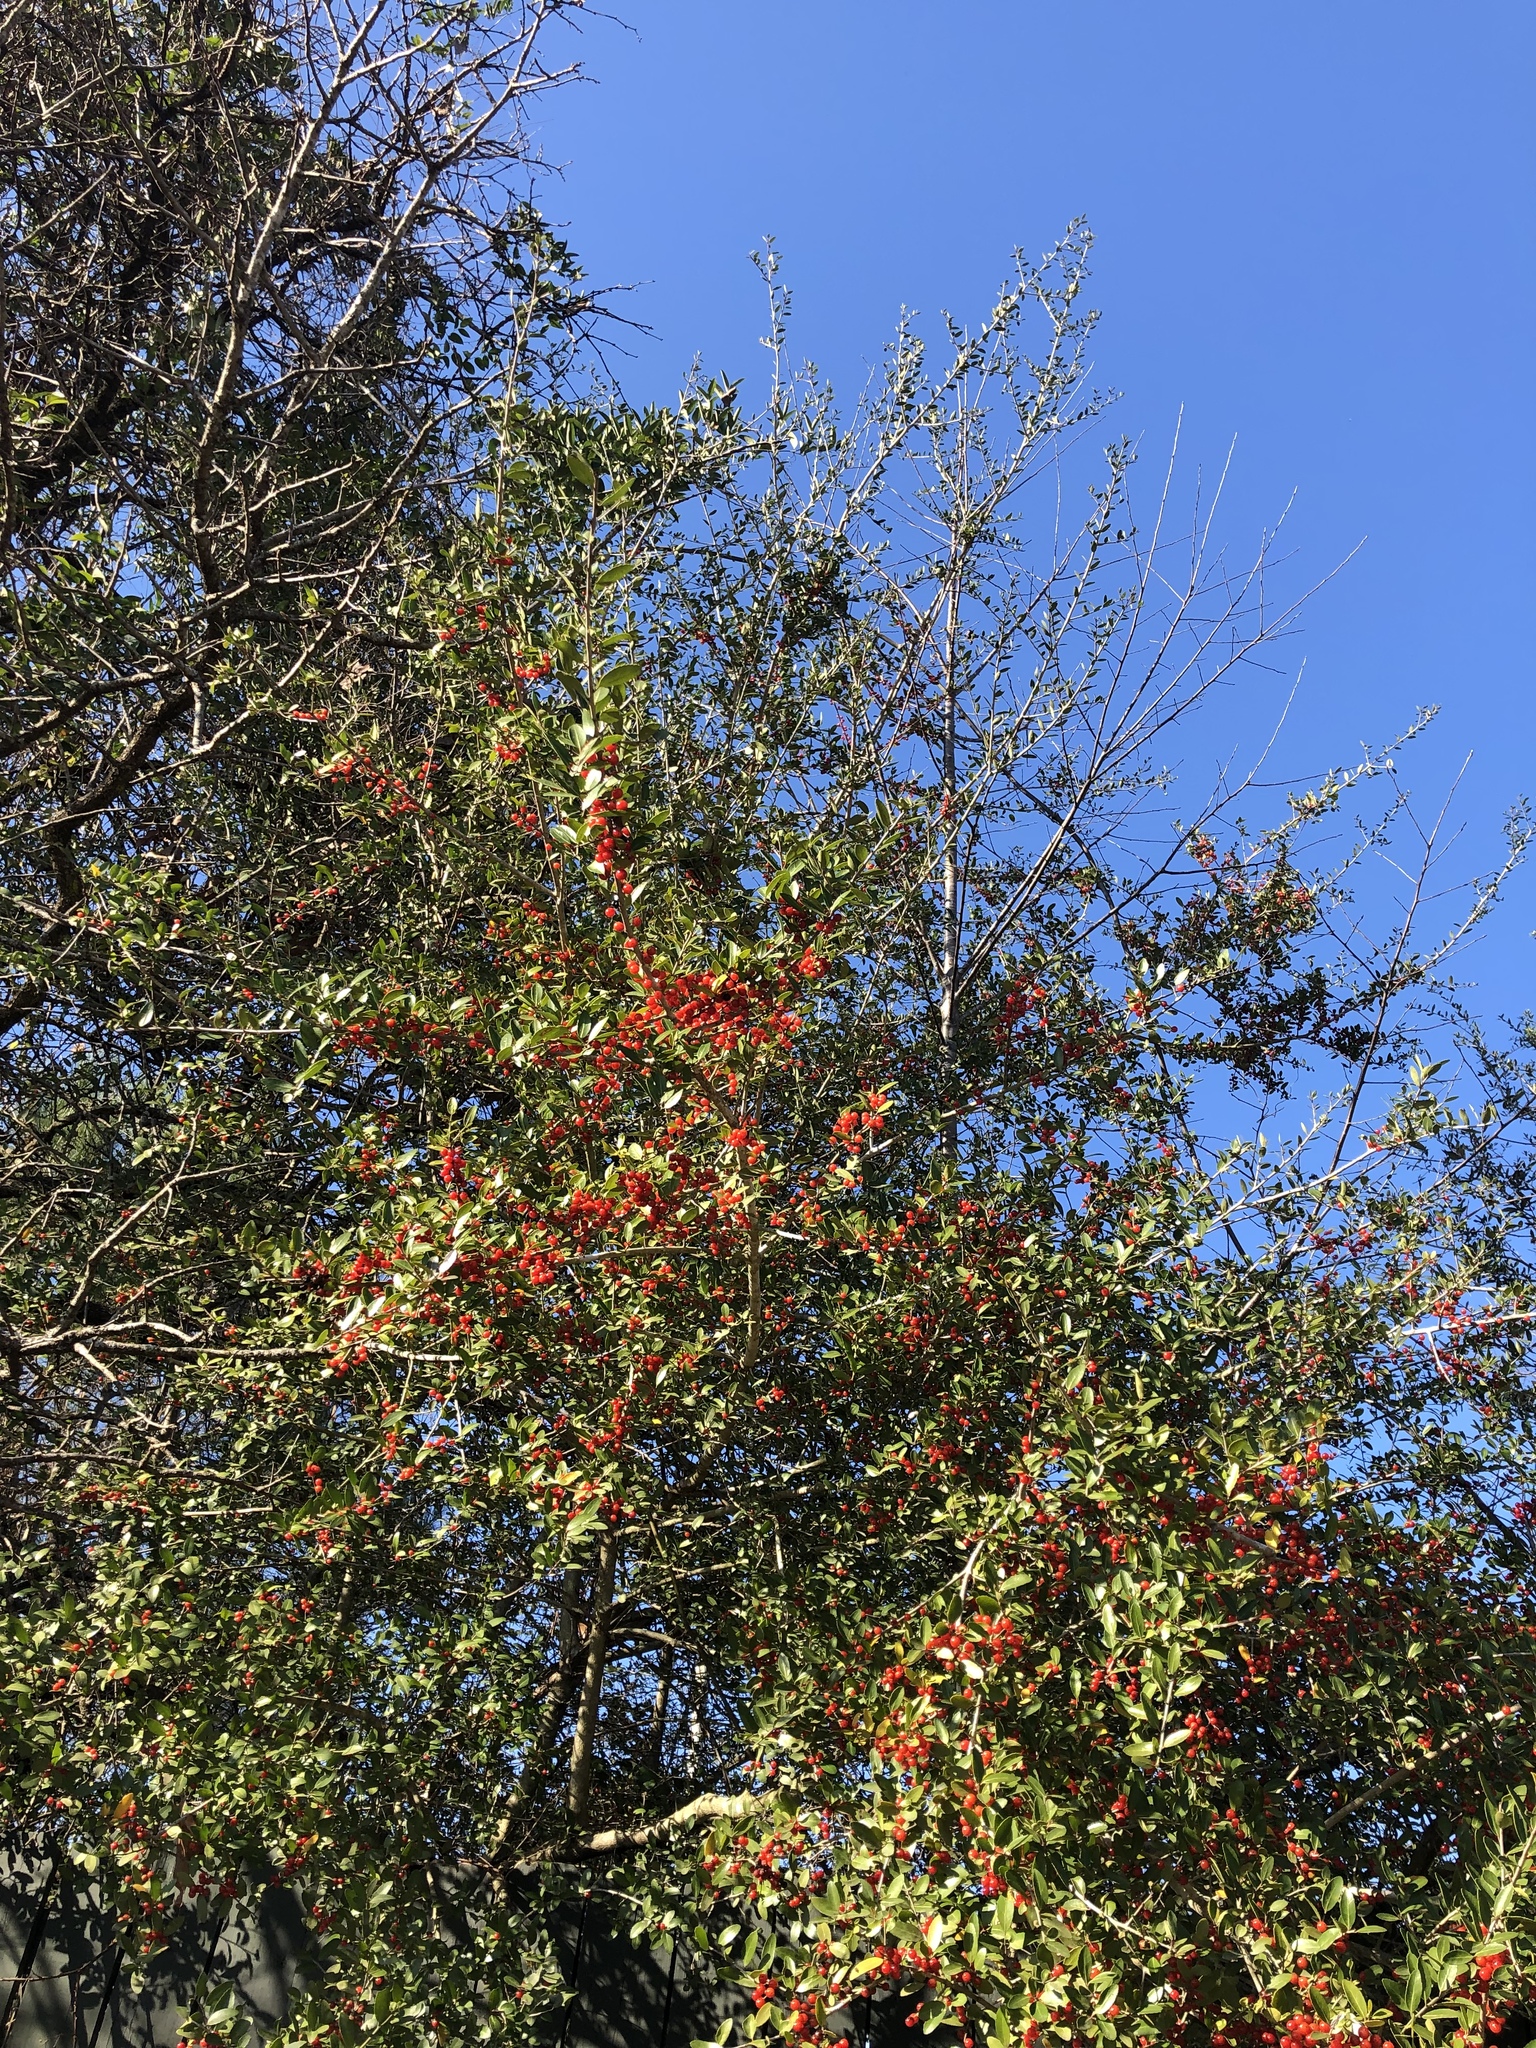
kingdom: Plantae
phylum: Tracheophyta
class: Magnoliopsida
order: Aquifoliales
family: Aquifoliaceae
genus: Ilex
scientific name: Ilex vomitoria
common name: Yaupon holly
